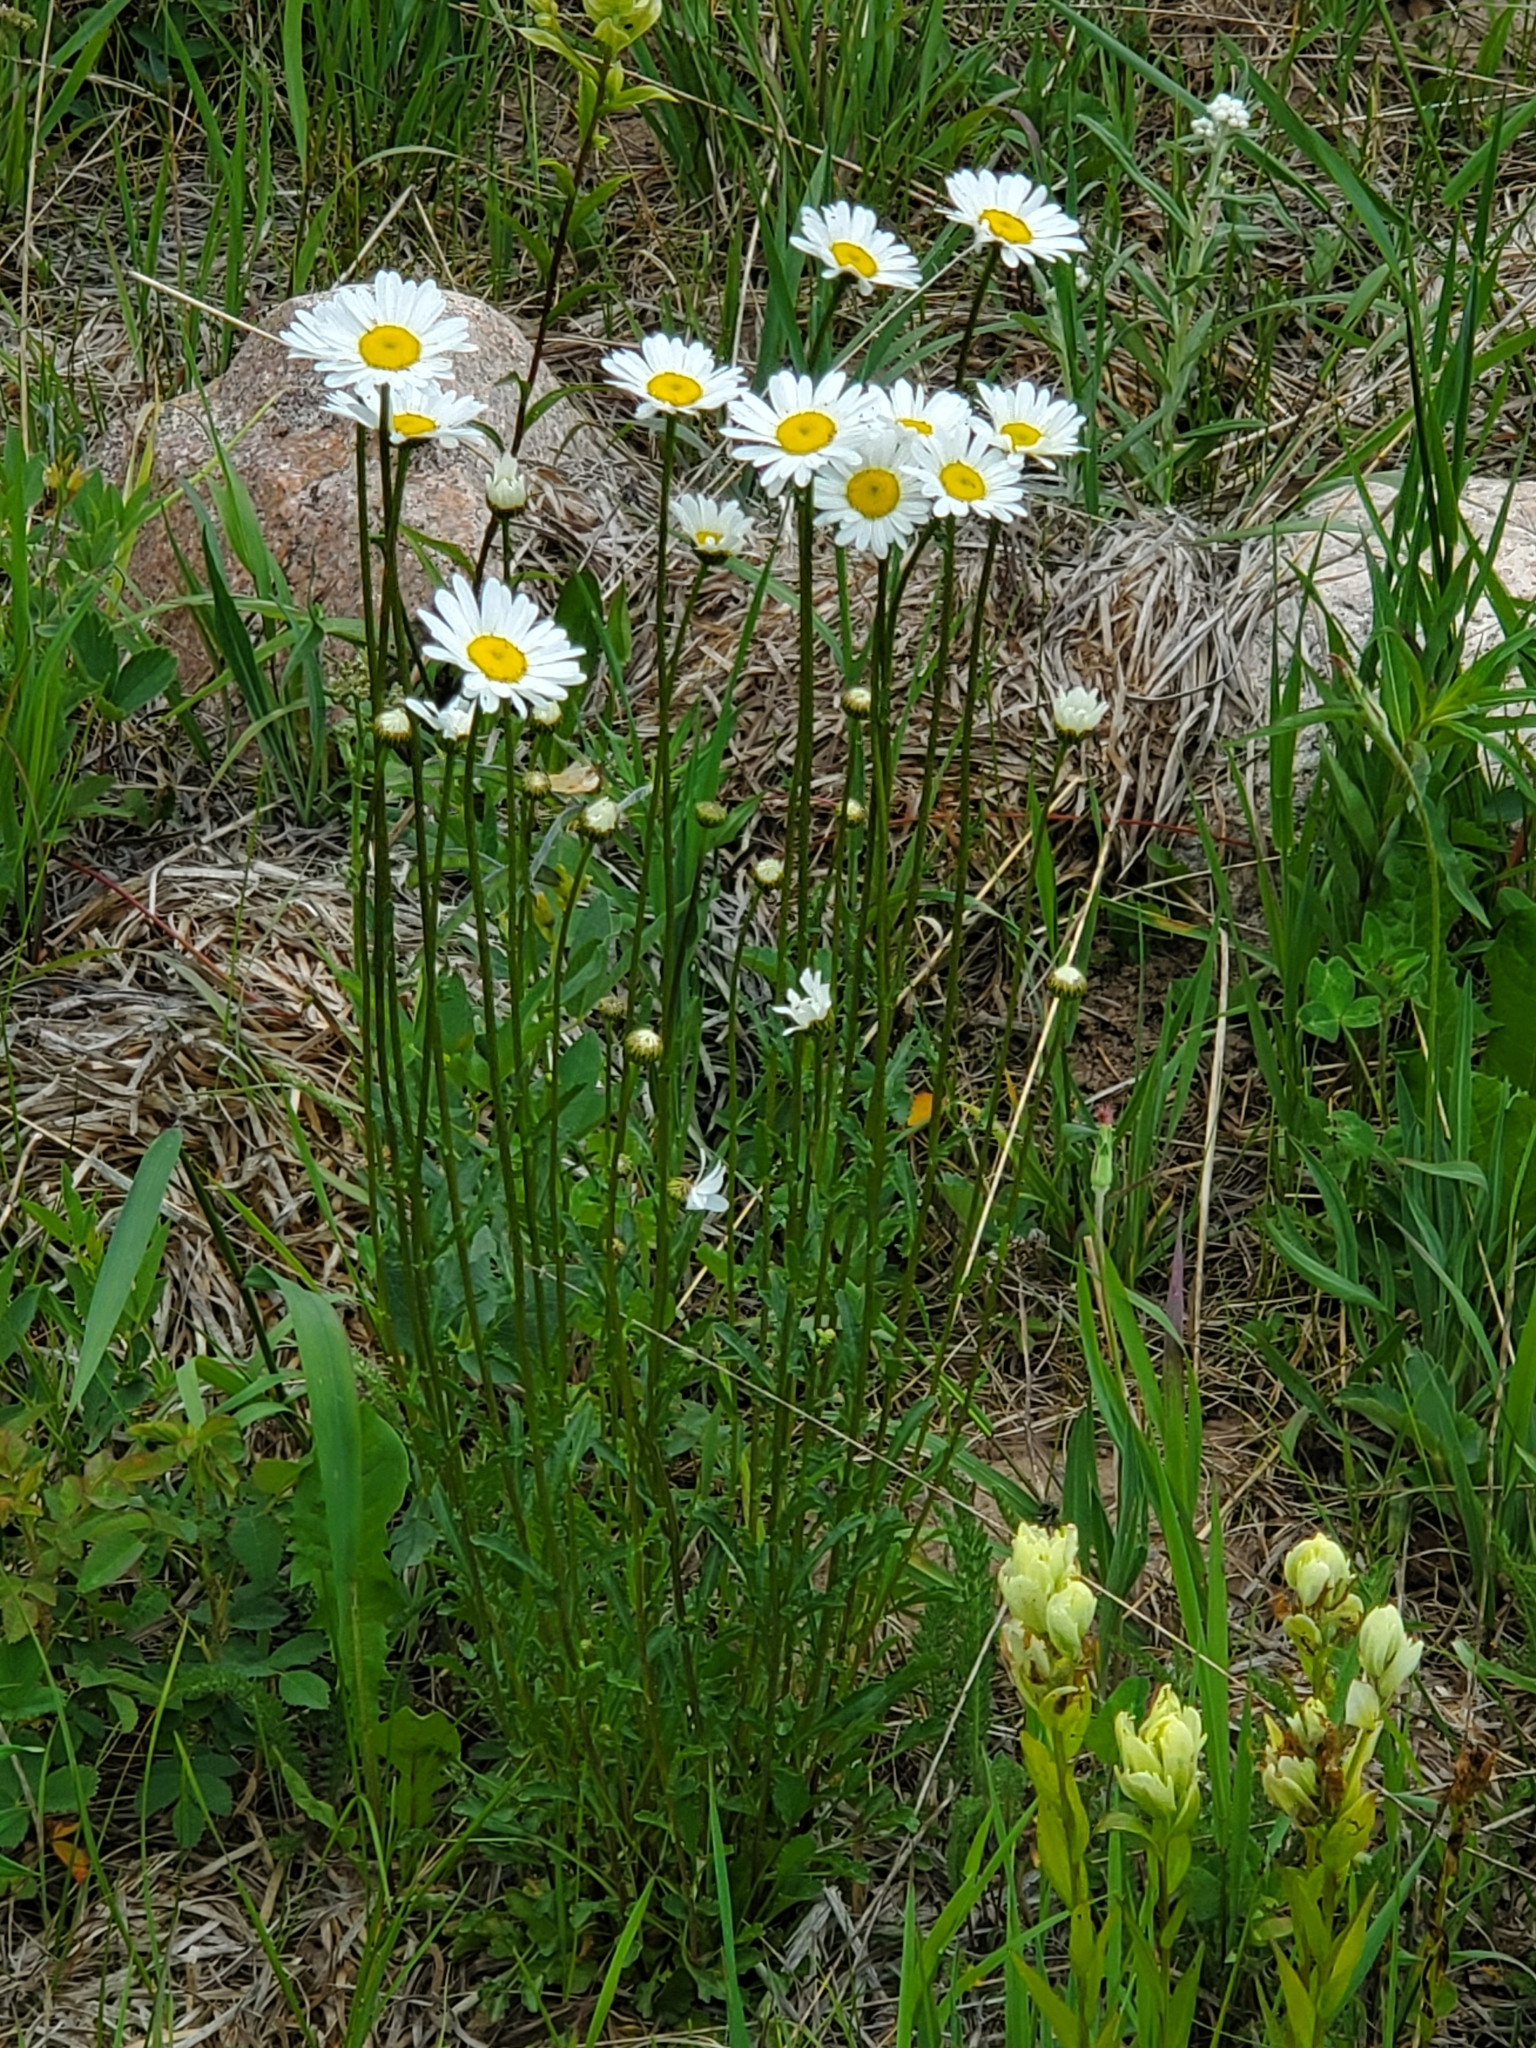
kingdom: Plantae
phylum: Tracheophyta
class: Magnoliopsida
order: Asterales
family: Asteraceae
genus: Leucanthemum
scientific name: Leucanthemum vulgare
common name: Oxeye daisy
